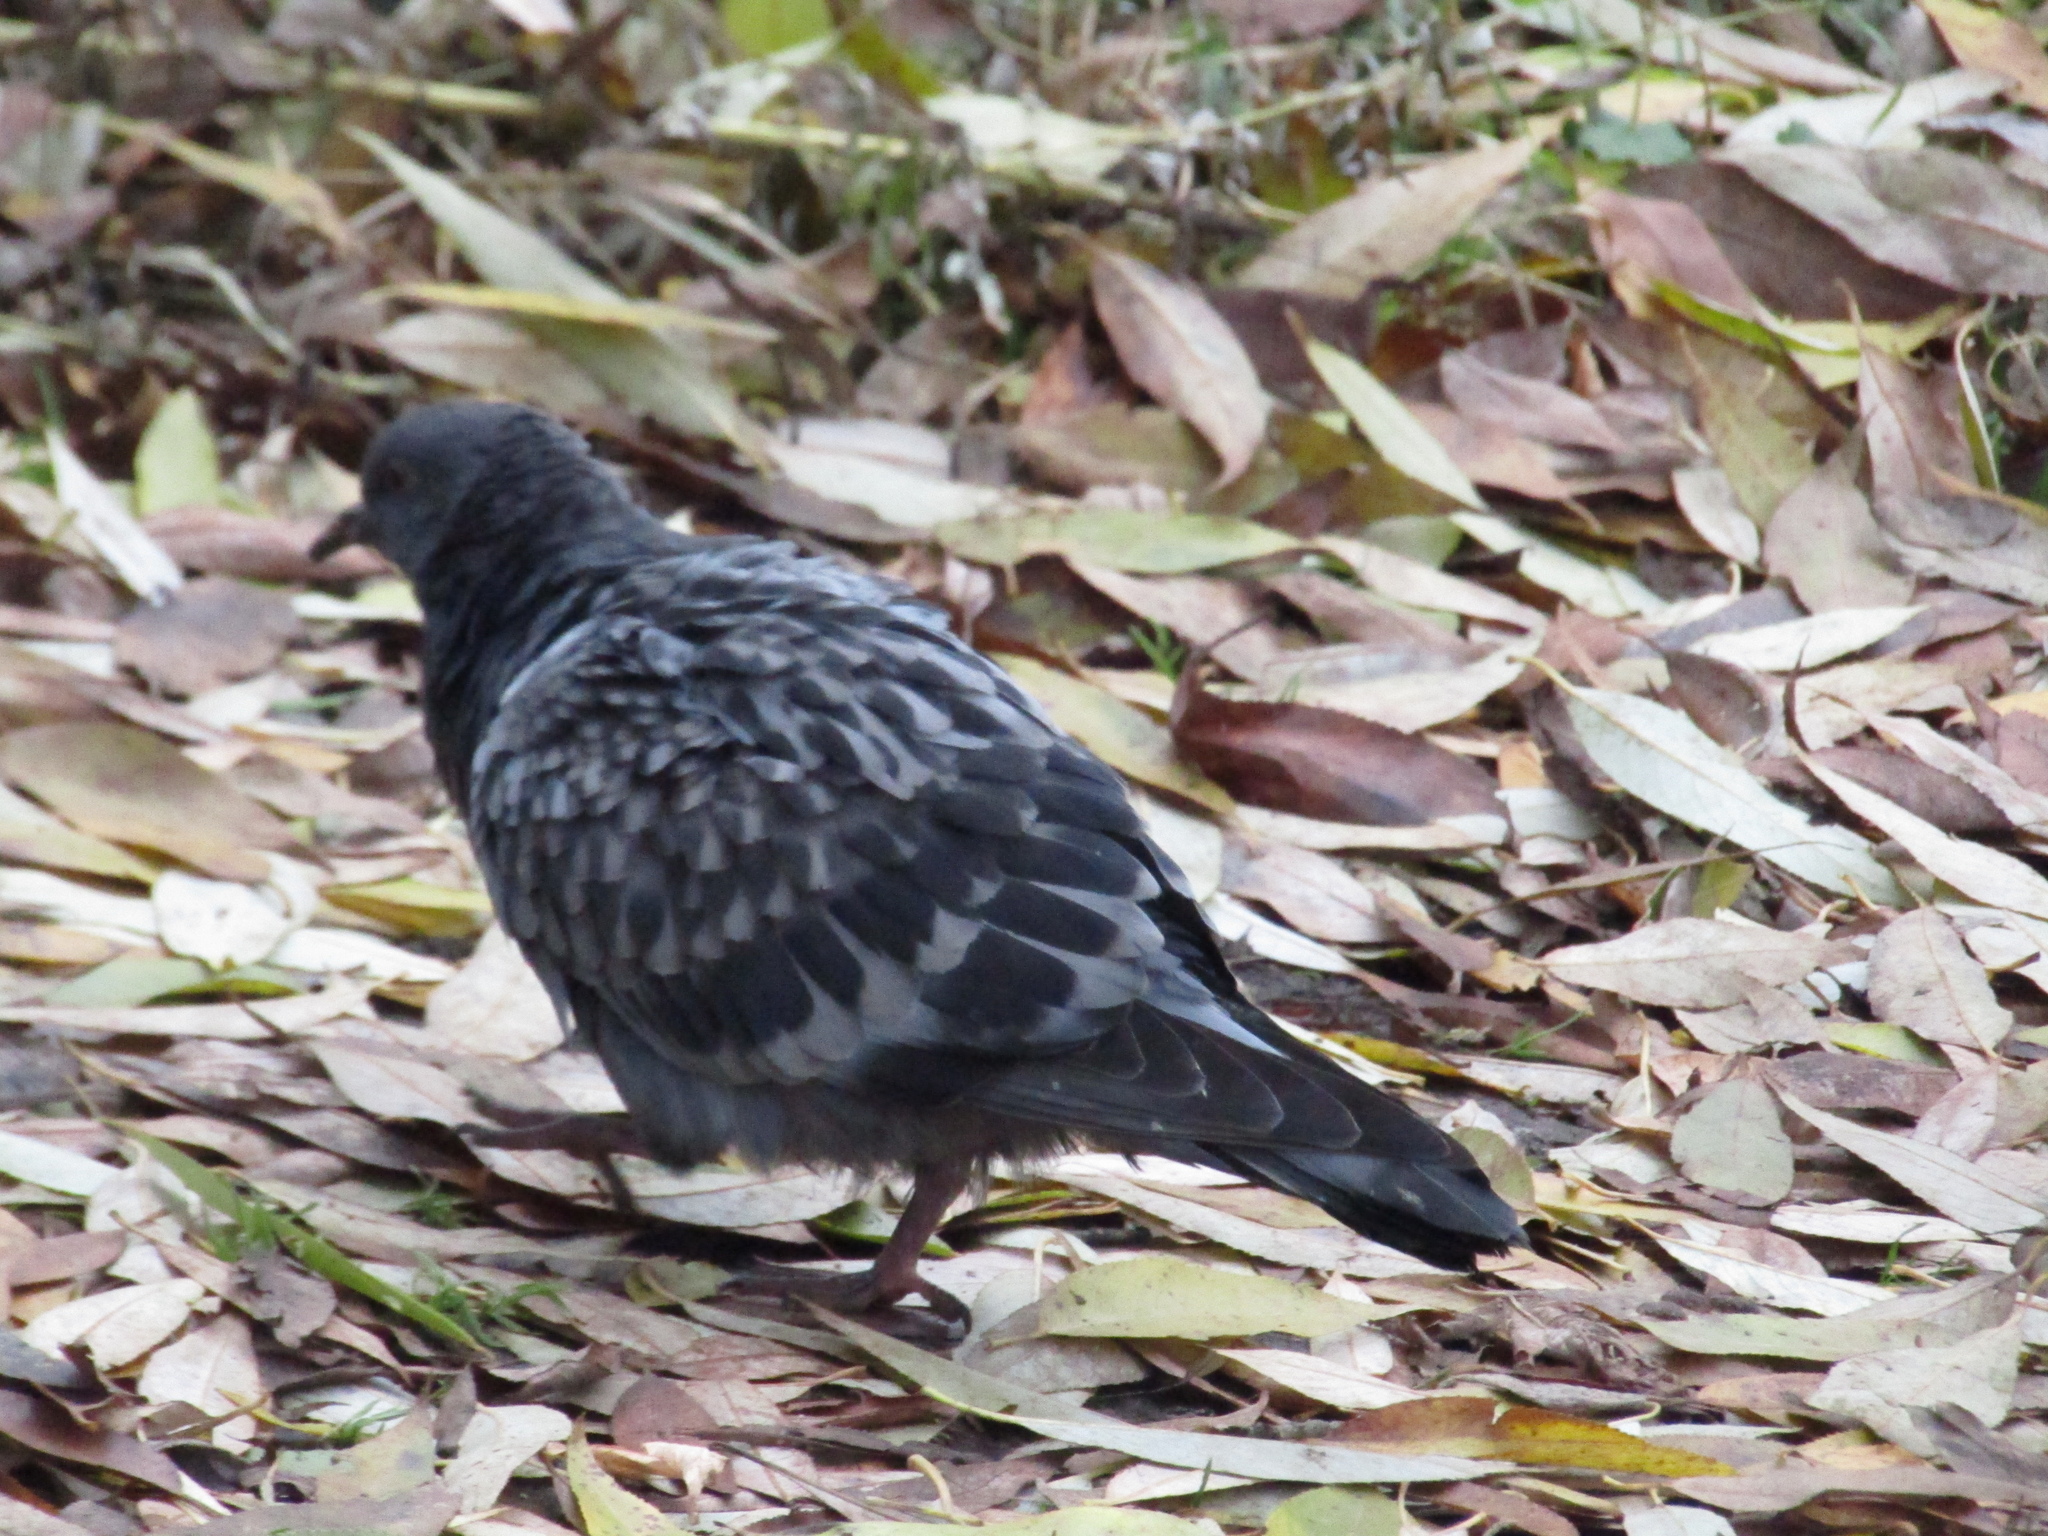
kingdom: Animalia
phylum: Chordata
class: Aves
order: Columbiformes
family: Columbidae
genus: Columba
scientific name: Columba livia
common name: Rock pigeon
